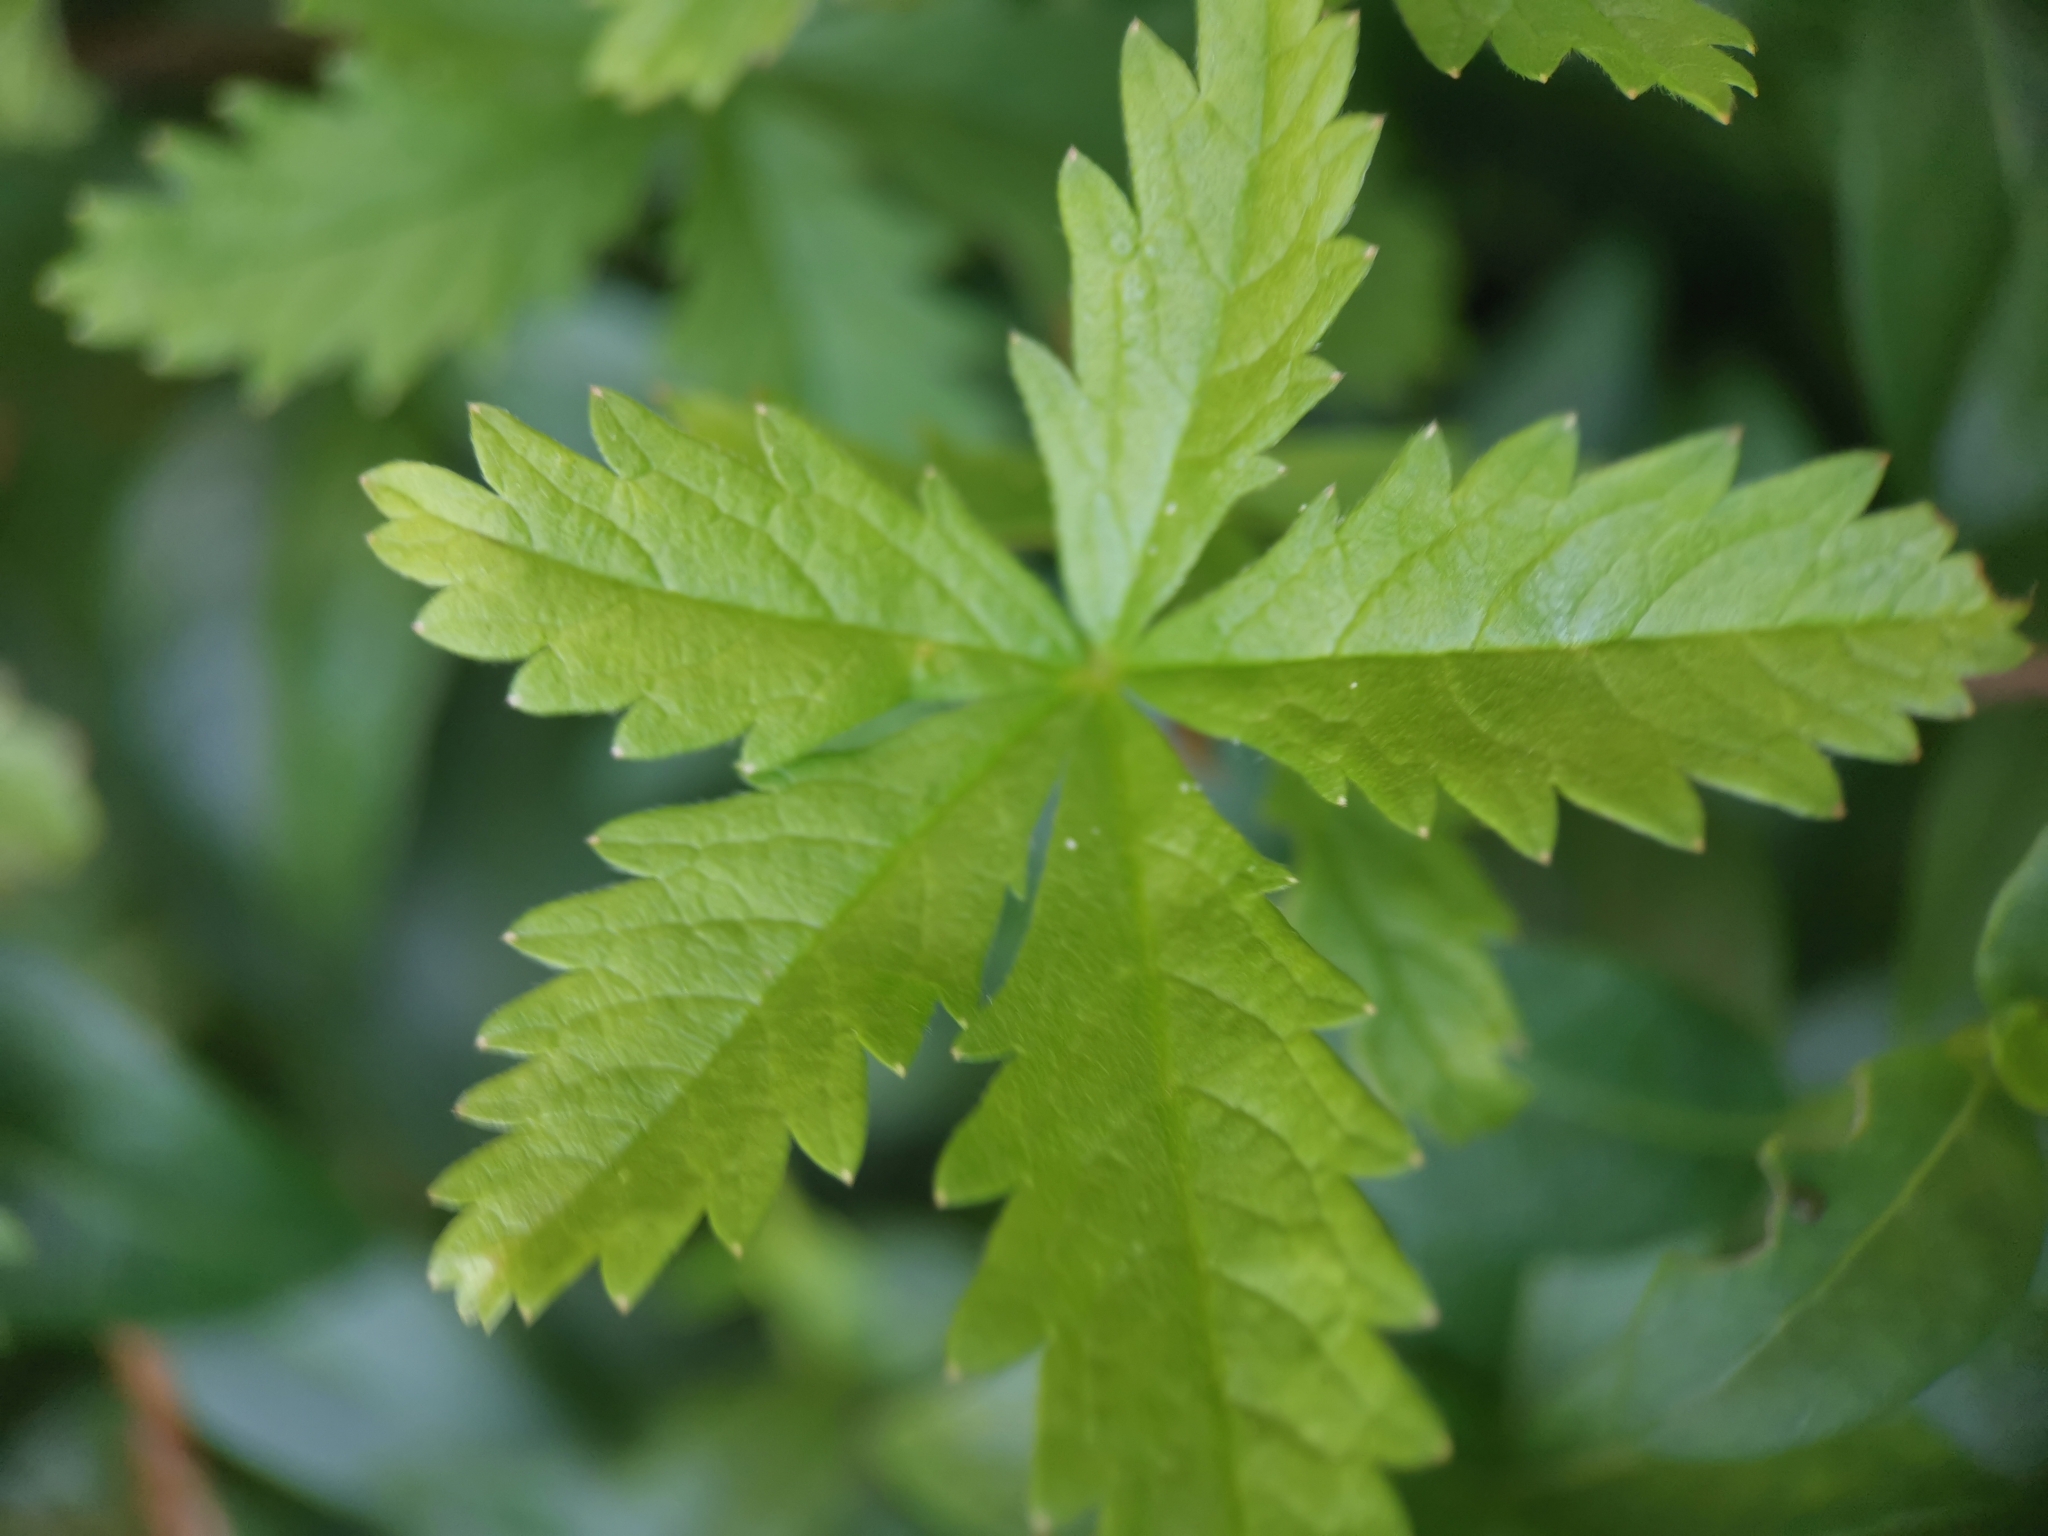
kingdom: Plantae
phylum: Tracheophyta
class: Magnoliopsida
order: Rosales
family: Rosaceae
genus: Potentilla
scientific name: Potentilla reptans
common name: Creeping cinquefoil
